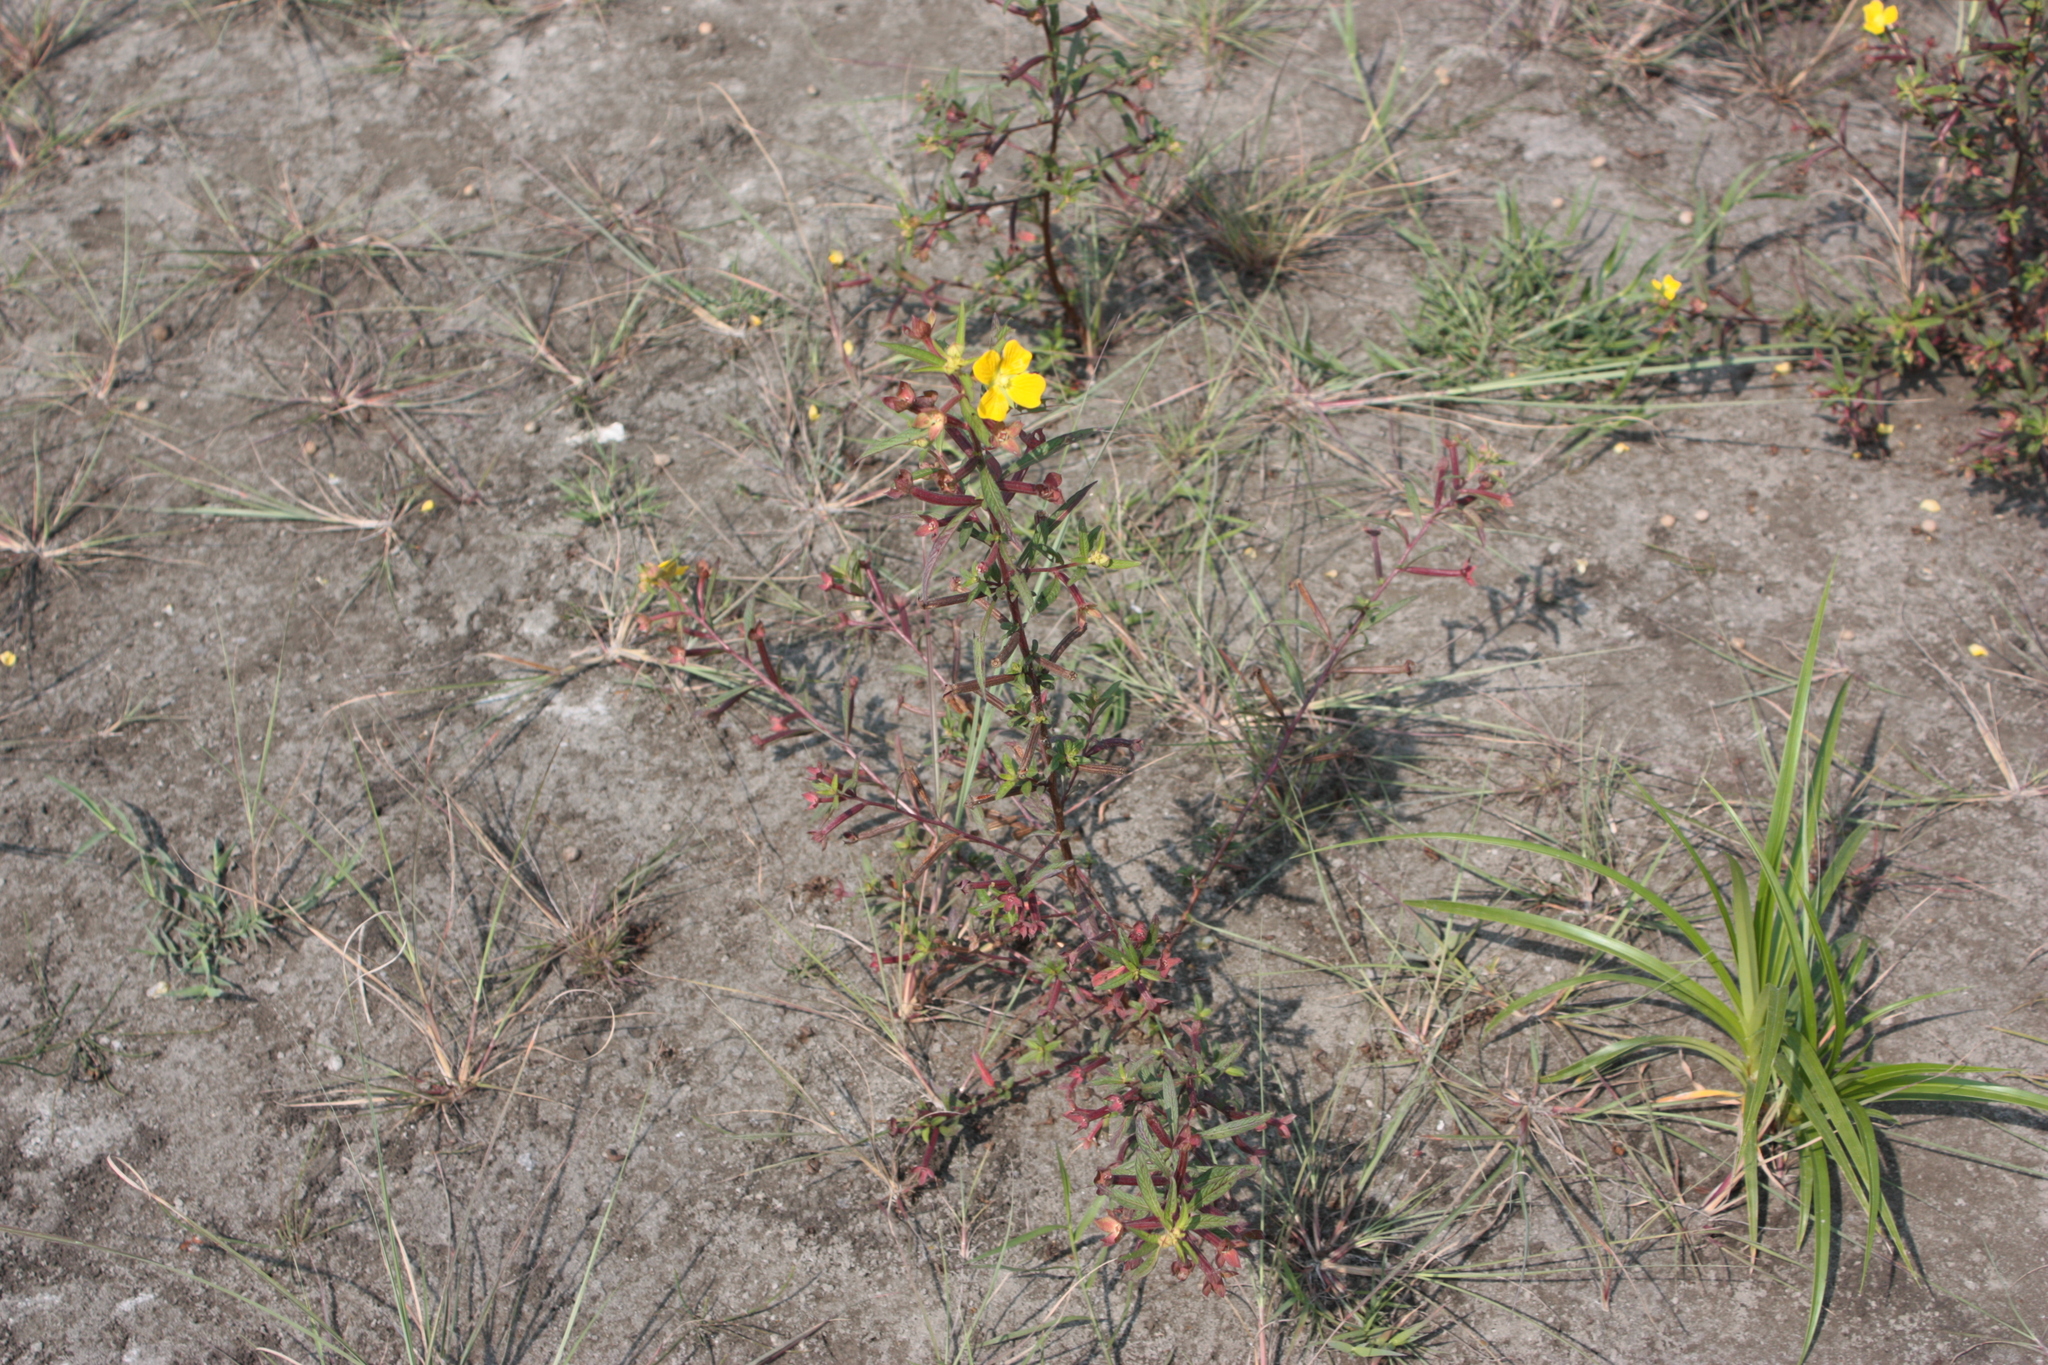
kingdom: Plantae
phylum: Tracheophyta
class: Magnoliopsida
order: Myrtales
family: Onagraceae
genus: Ludwigia
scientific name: Ludwigia octovalvis
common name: Water-primrose
